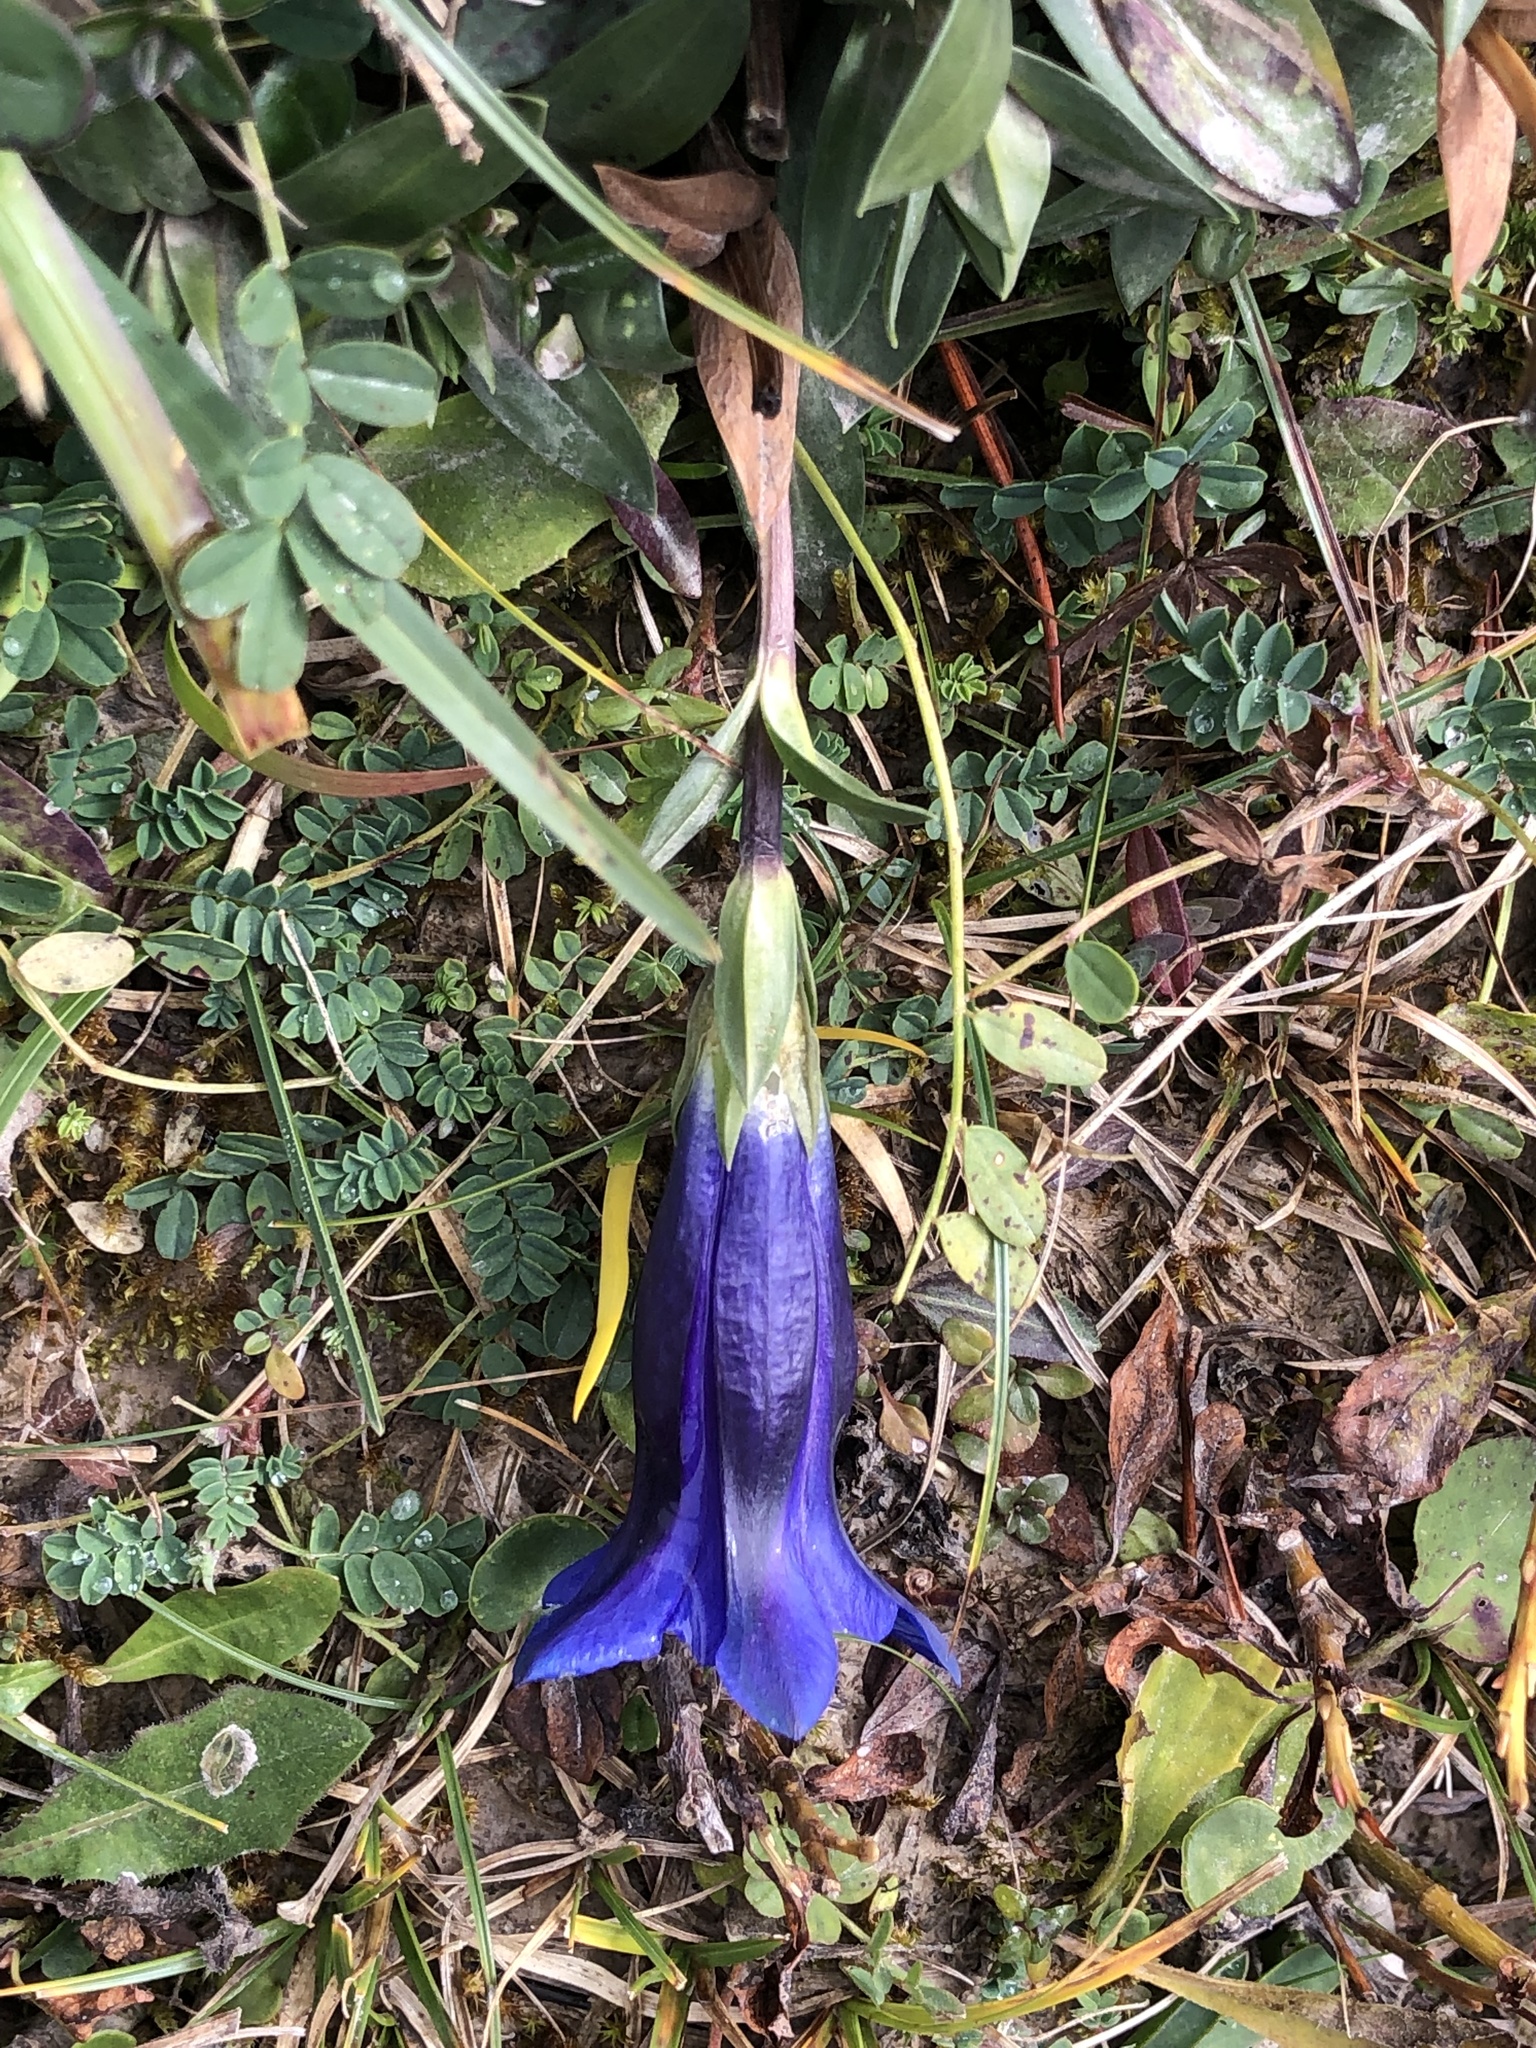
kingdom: Plantae
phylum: Tracheophyta
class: Magnoliopsida
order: Gentianales
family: Gentianaceae
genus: Gentiana
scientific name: Gentiana clusii
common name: Trumpet gentian
